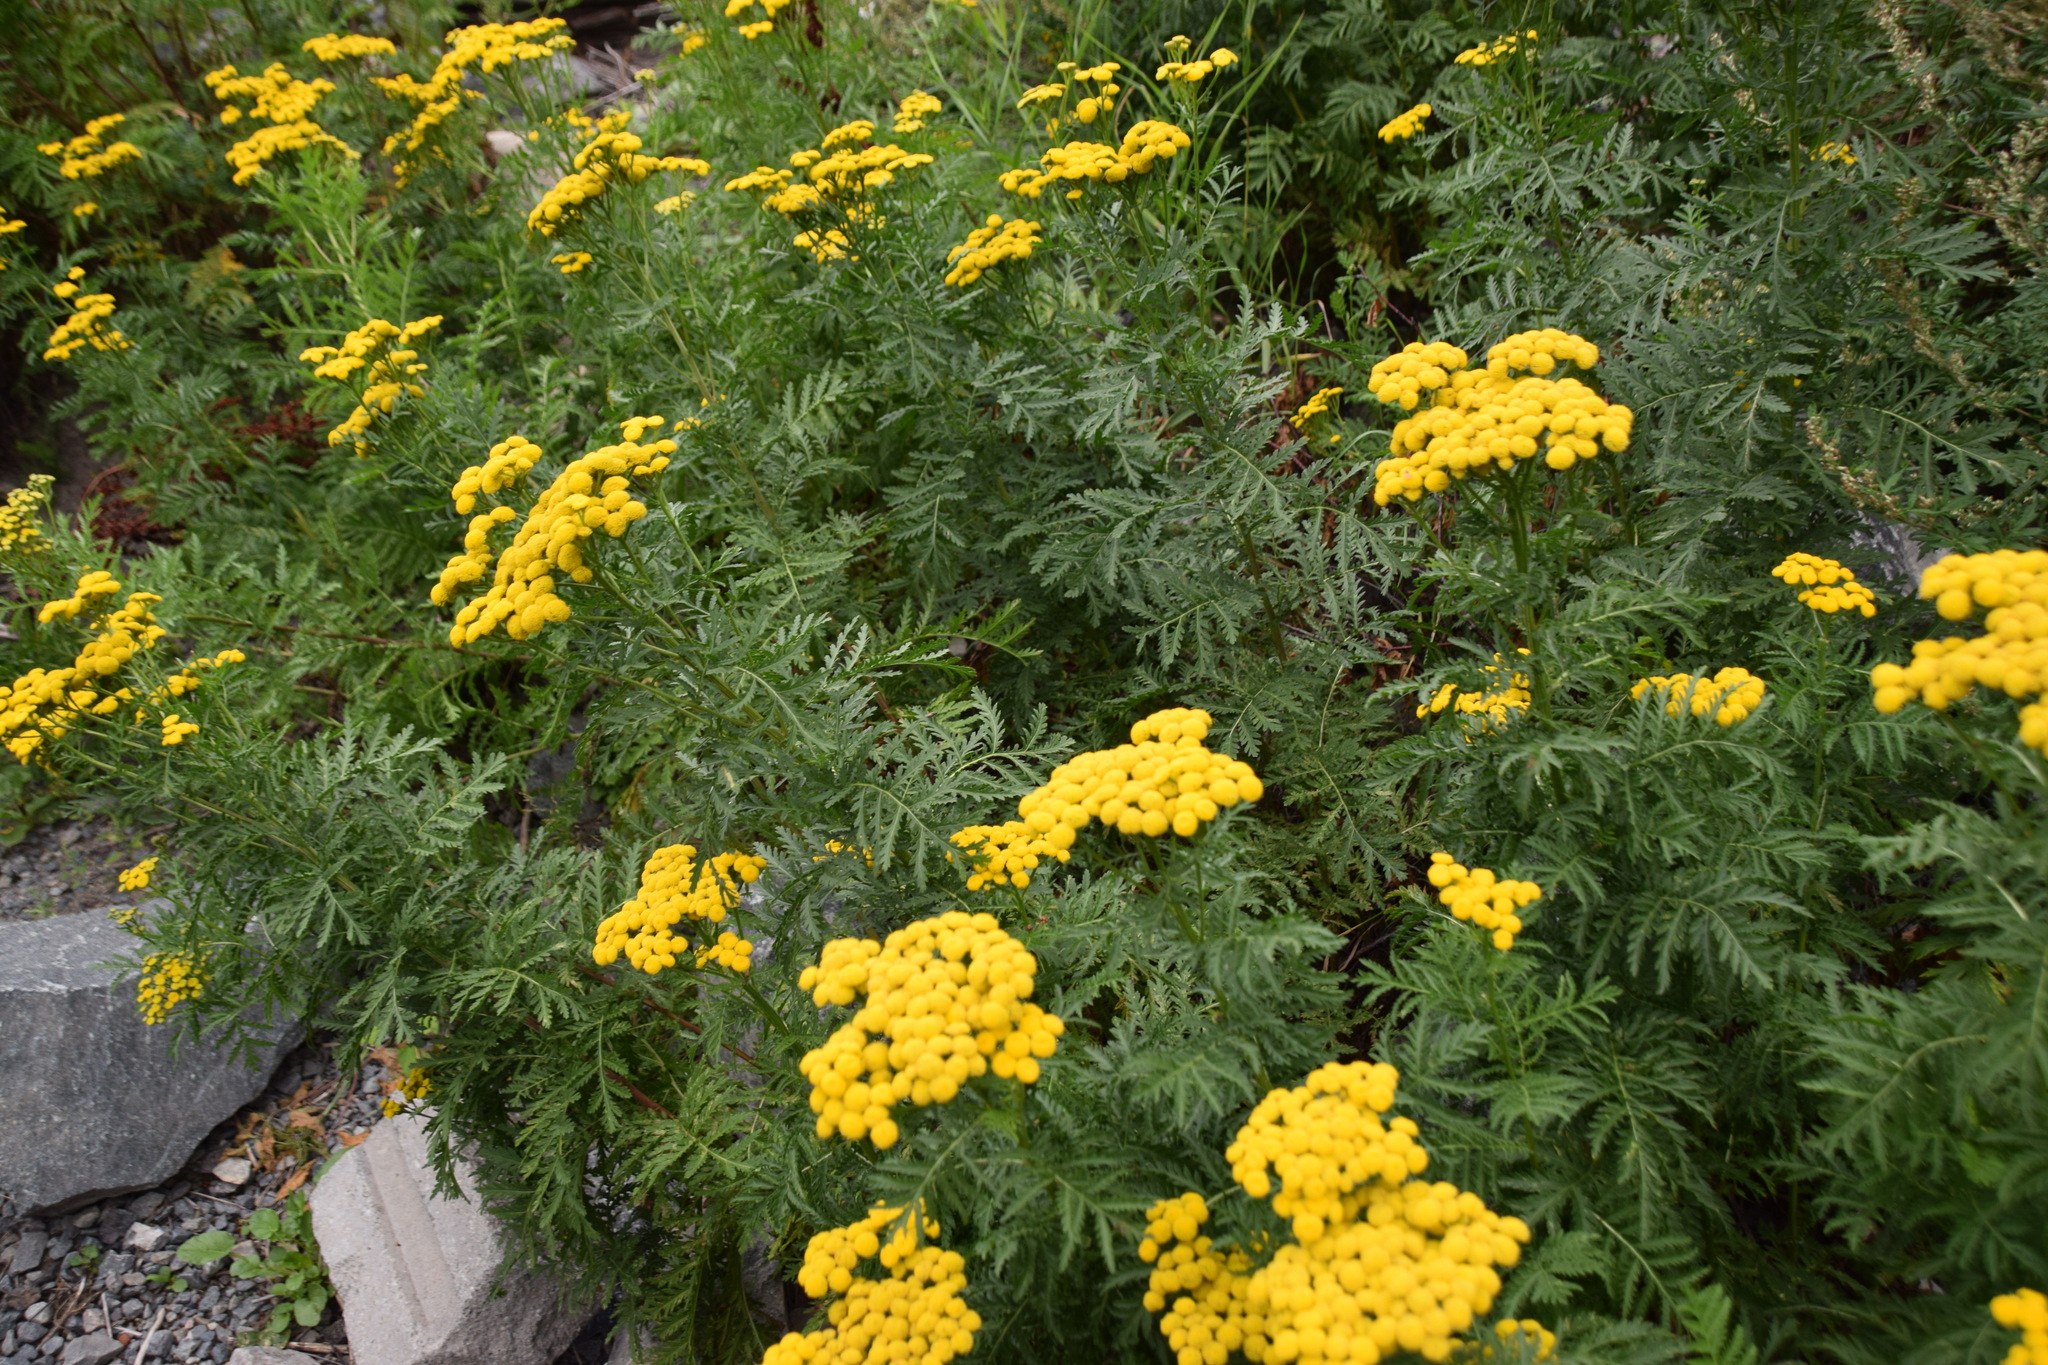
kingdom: Plantae
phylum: Tracheophyta
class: Magnoliopsida
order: Asterales
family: Asteraceae
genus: Tanacetum
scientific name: Tanacetum vulgare
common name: Common tansy
